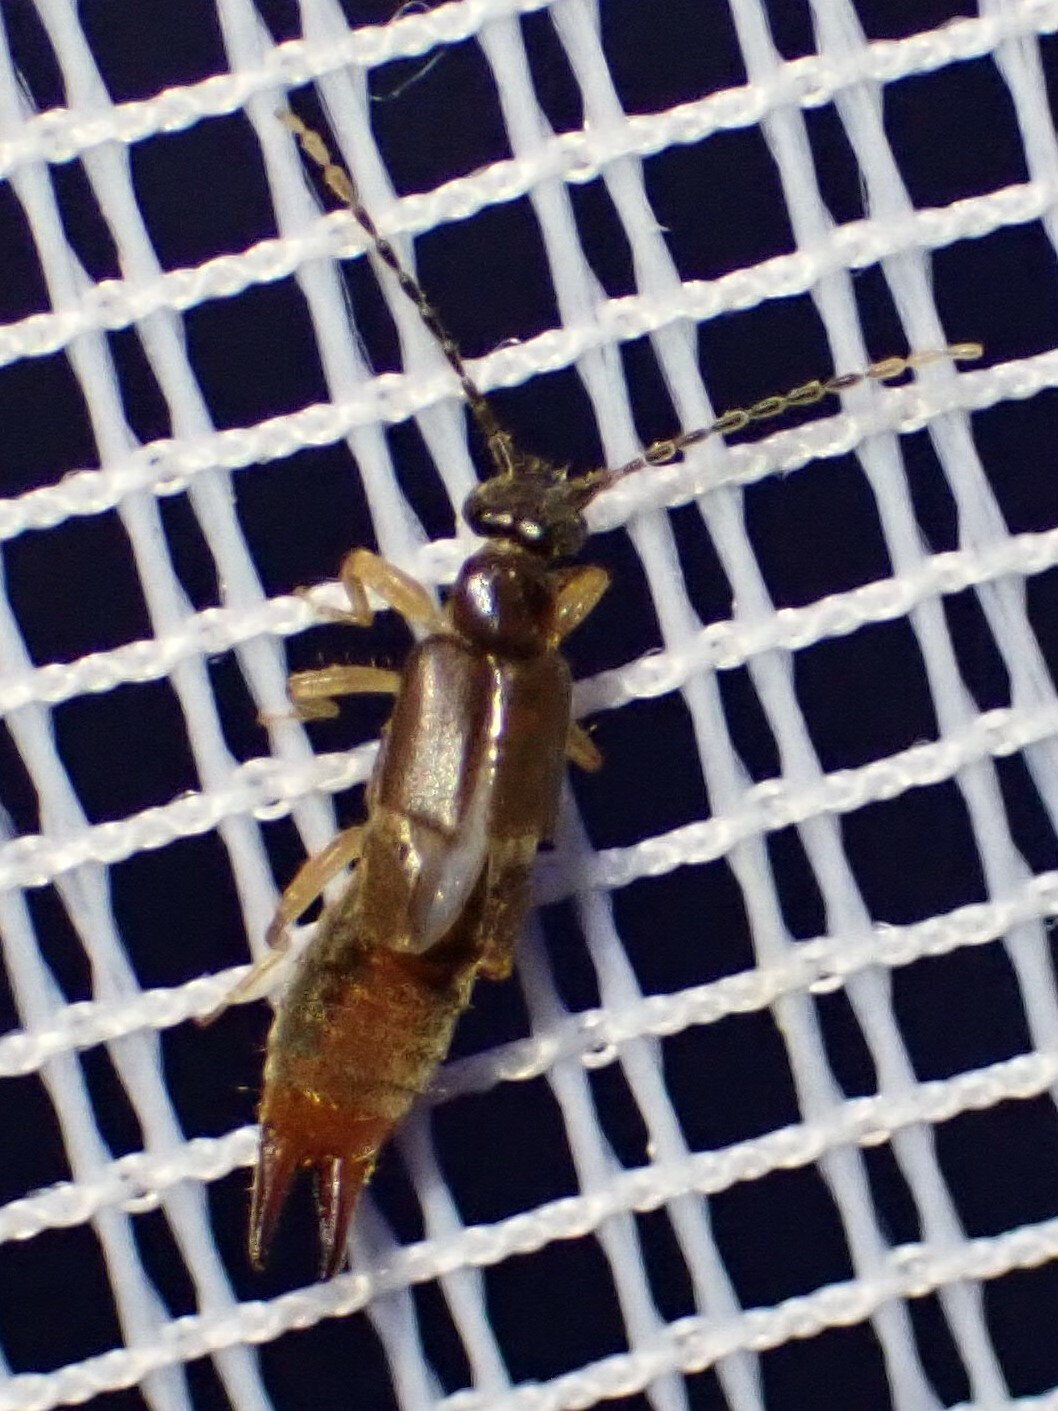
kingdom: Animalia
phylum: Arthropoda
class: Insecta
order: Dermaptera
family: Spongiphoridae
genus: Labia
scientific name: Labia minor
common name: Lesser earwig
